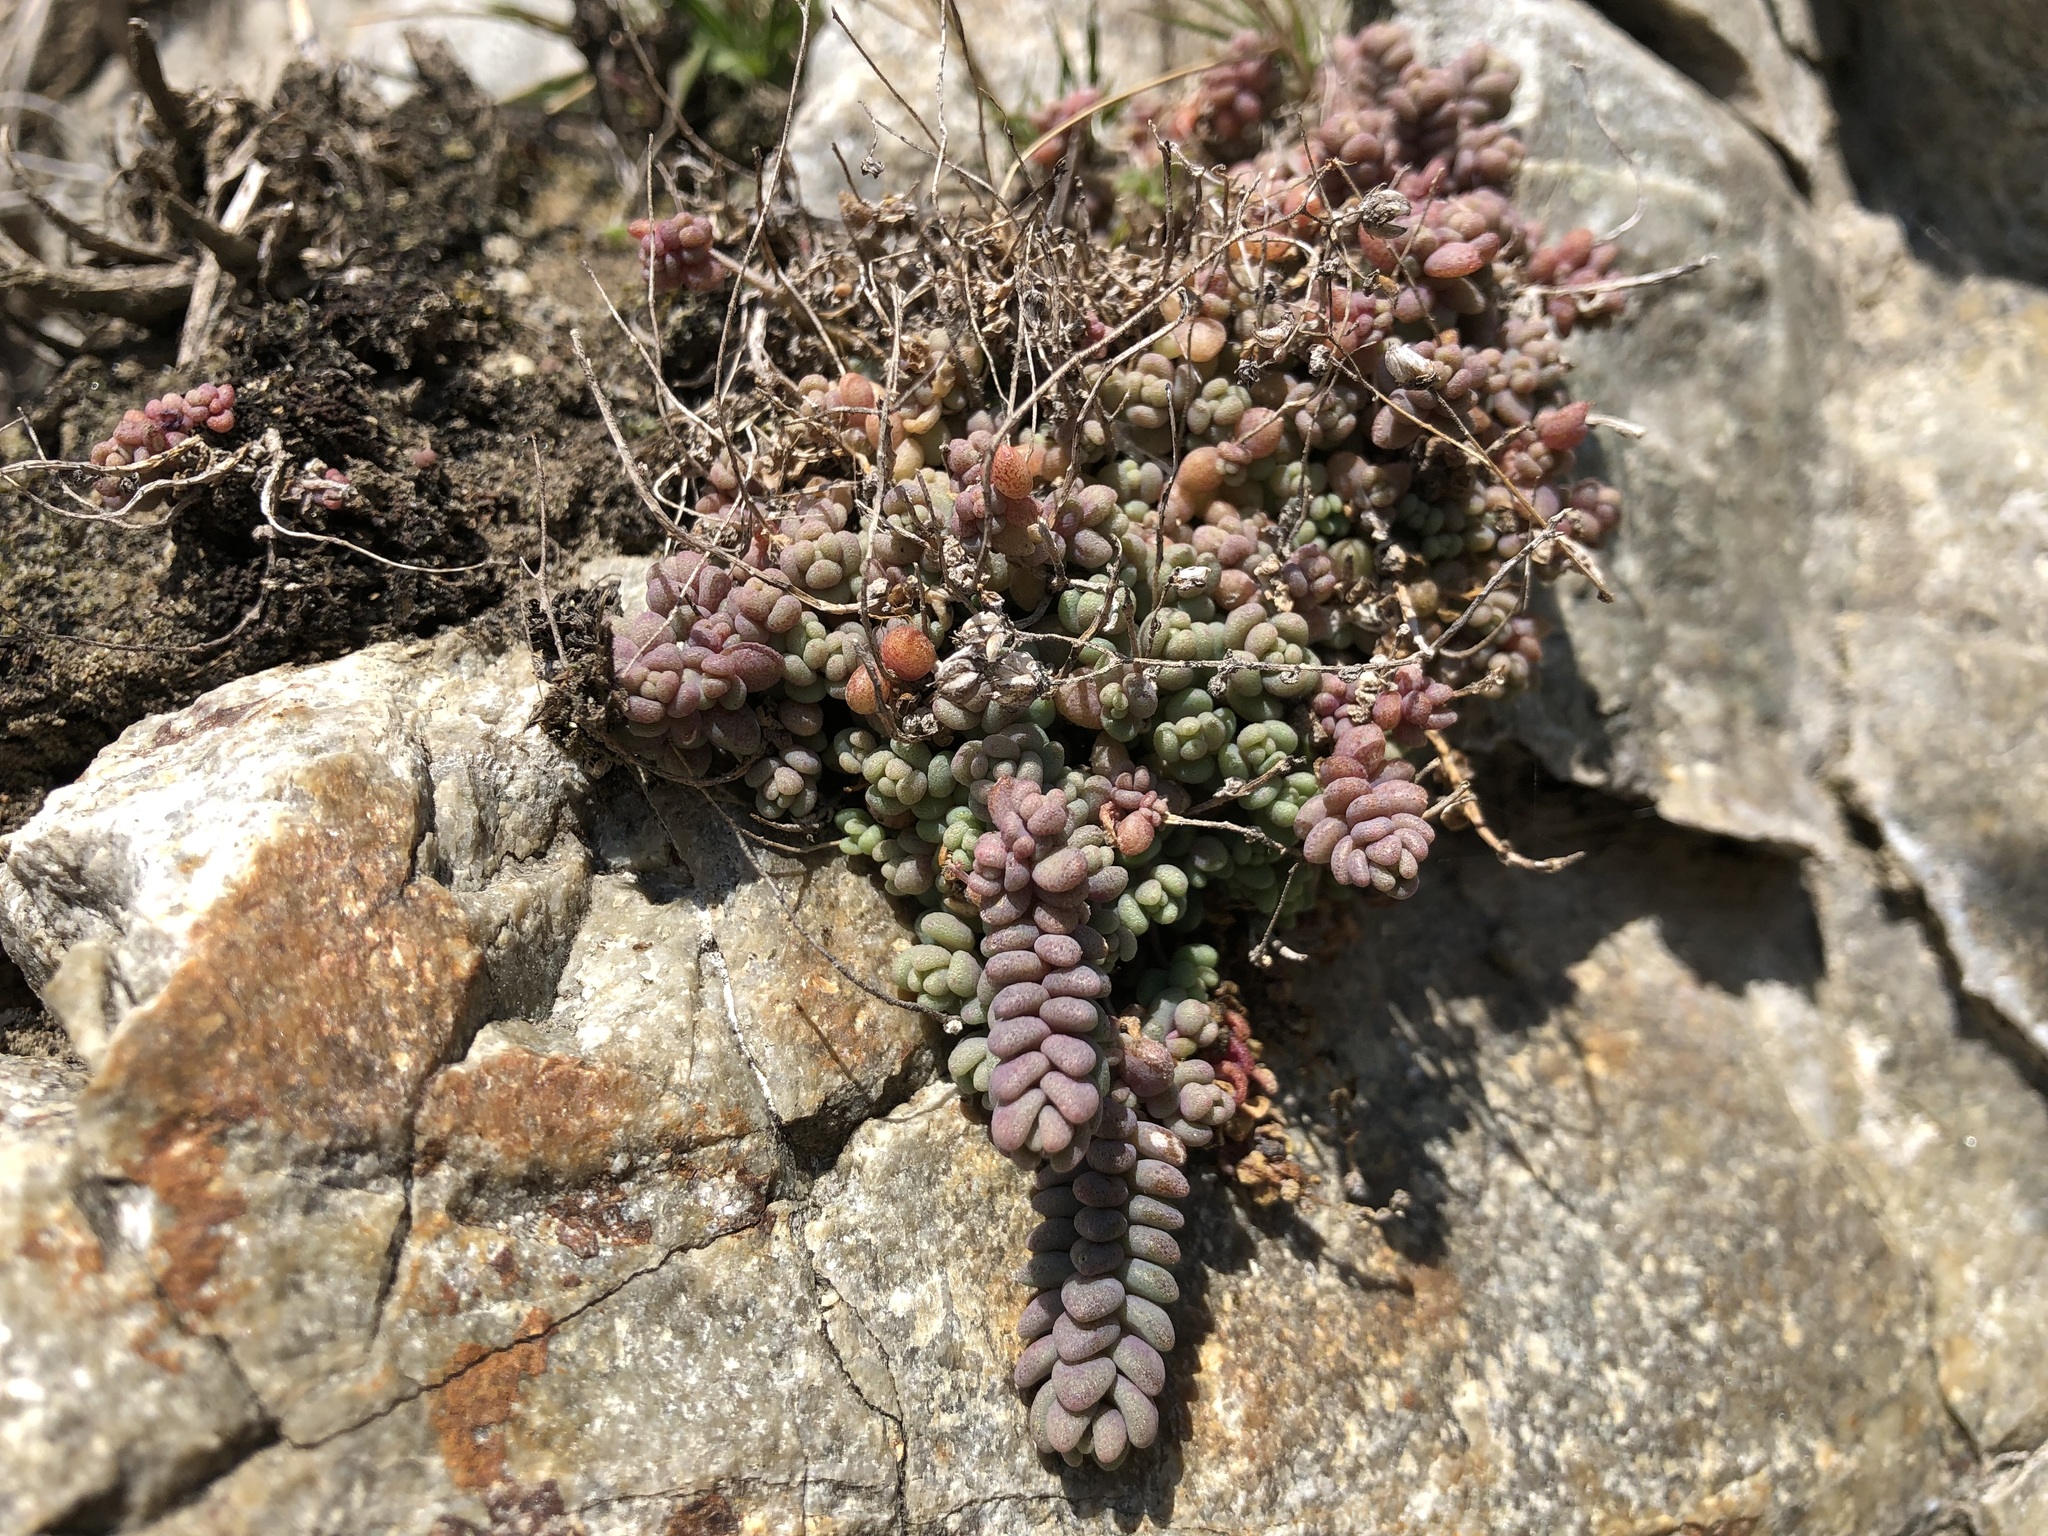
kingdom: Plantae
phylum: Tracheophyta
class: Magnoliopsida
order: Saxifragales
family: Crassulaceae
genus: Sedum
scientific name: Sedum dasyphyllum
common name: Thick-leaf stonecrop
